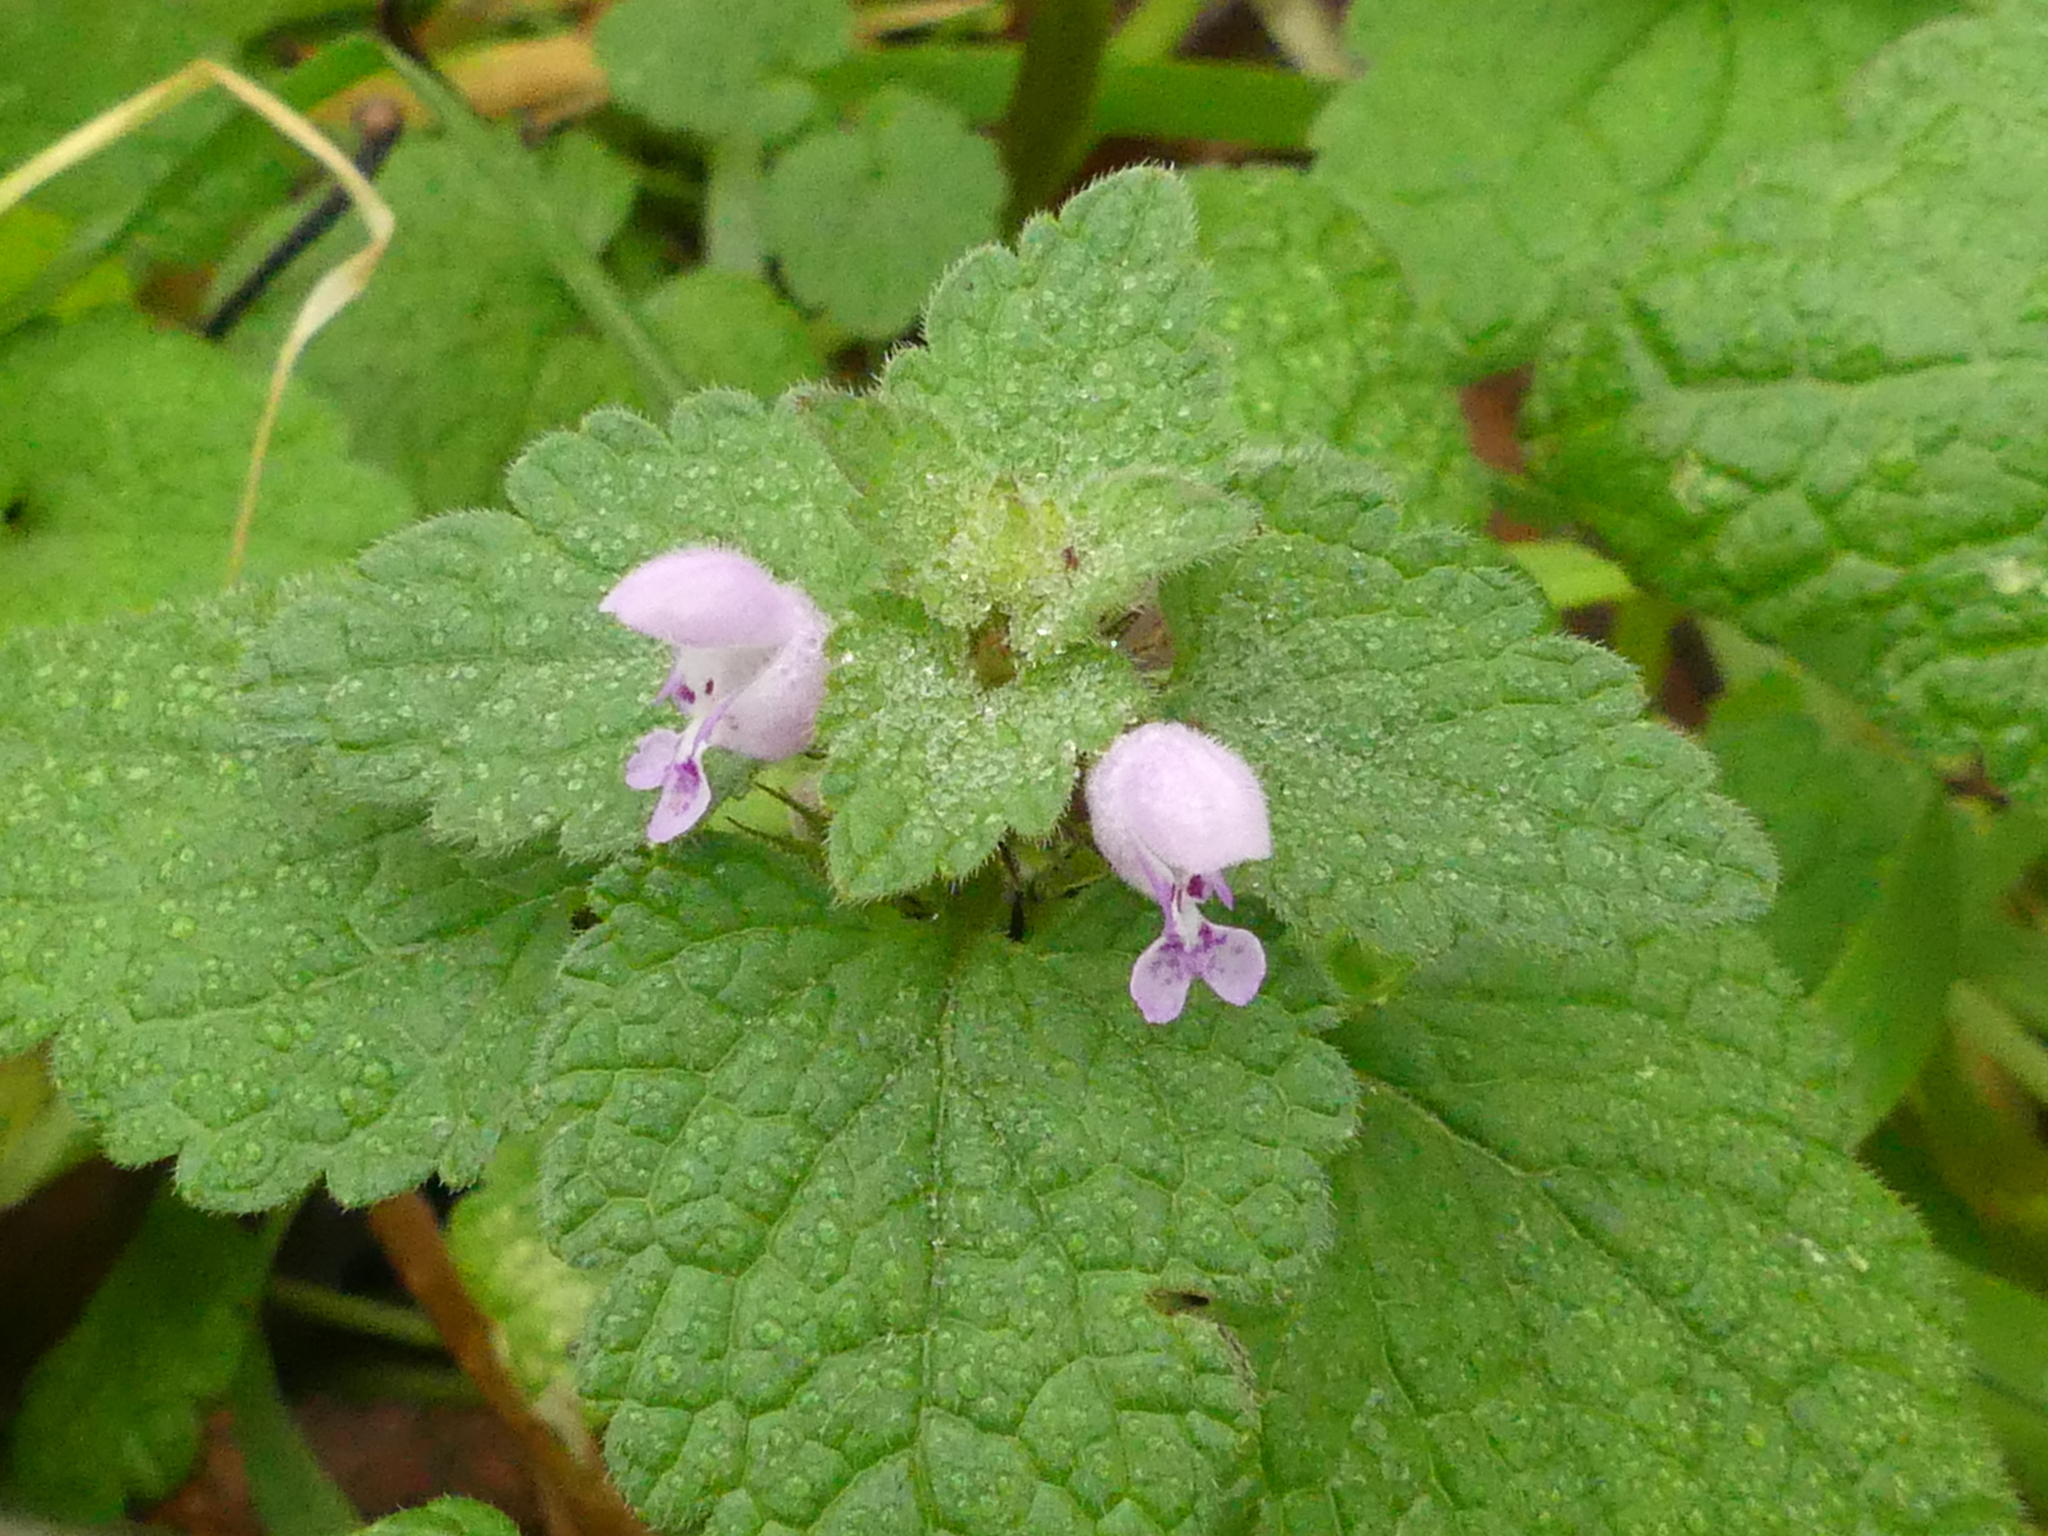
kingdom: Plantae
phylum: Tracheophyta
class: Magnoliopsida
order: Lamiales
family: Lamiaceae
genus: Lamium
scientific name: Lamium purpureum
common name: Red dead-nettle
